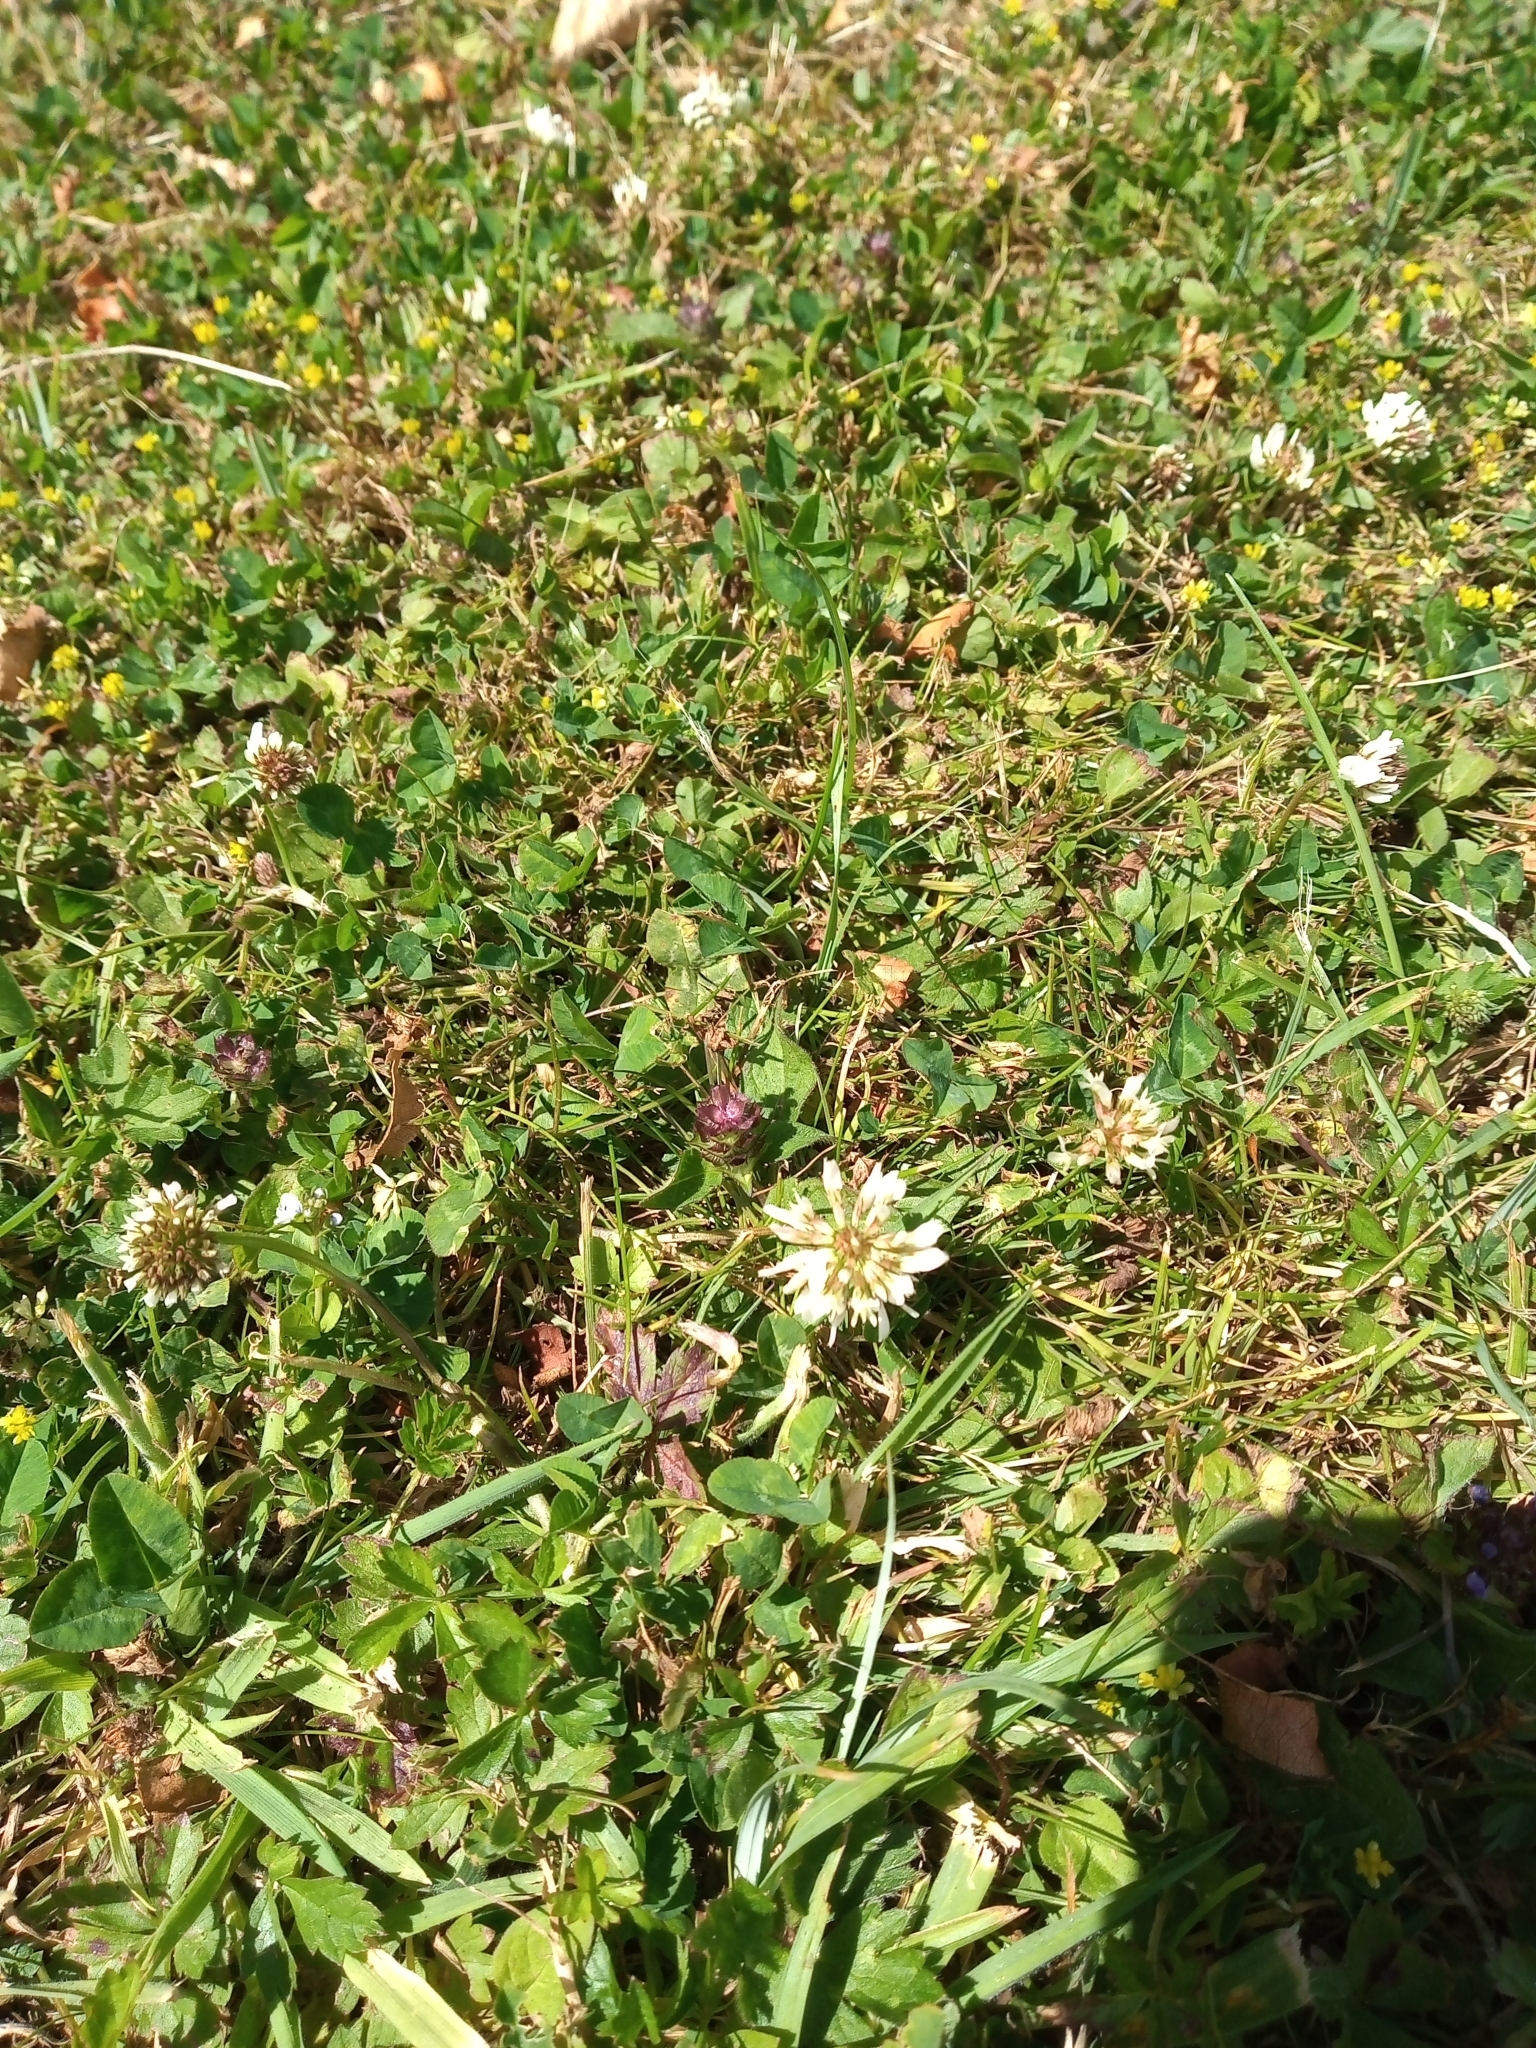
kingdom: Plantae
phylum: Tracheophyta
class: Magnoliopsida
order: Fabales
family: Fabaceae
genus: Trifolium
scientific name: Trifolium repens
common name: White clover
